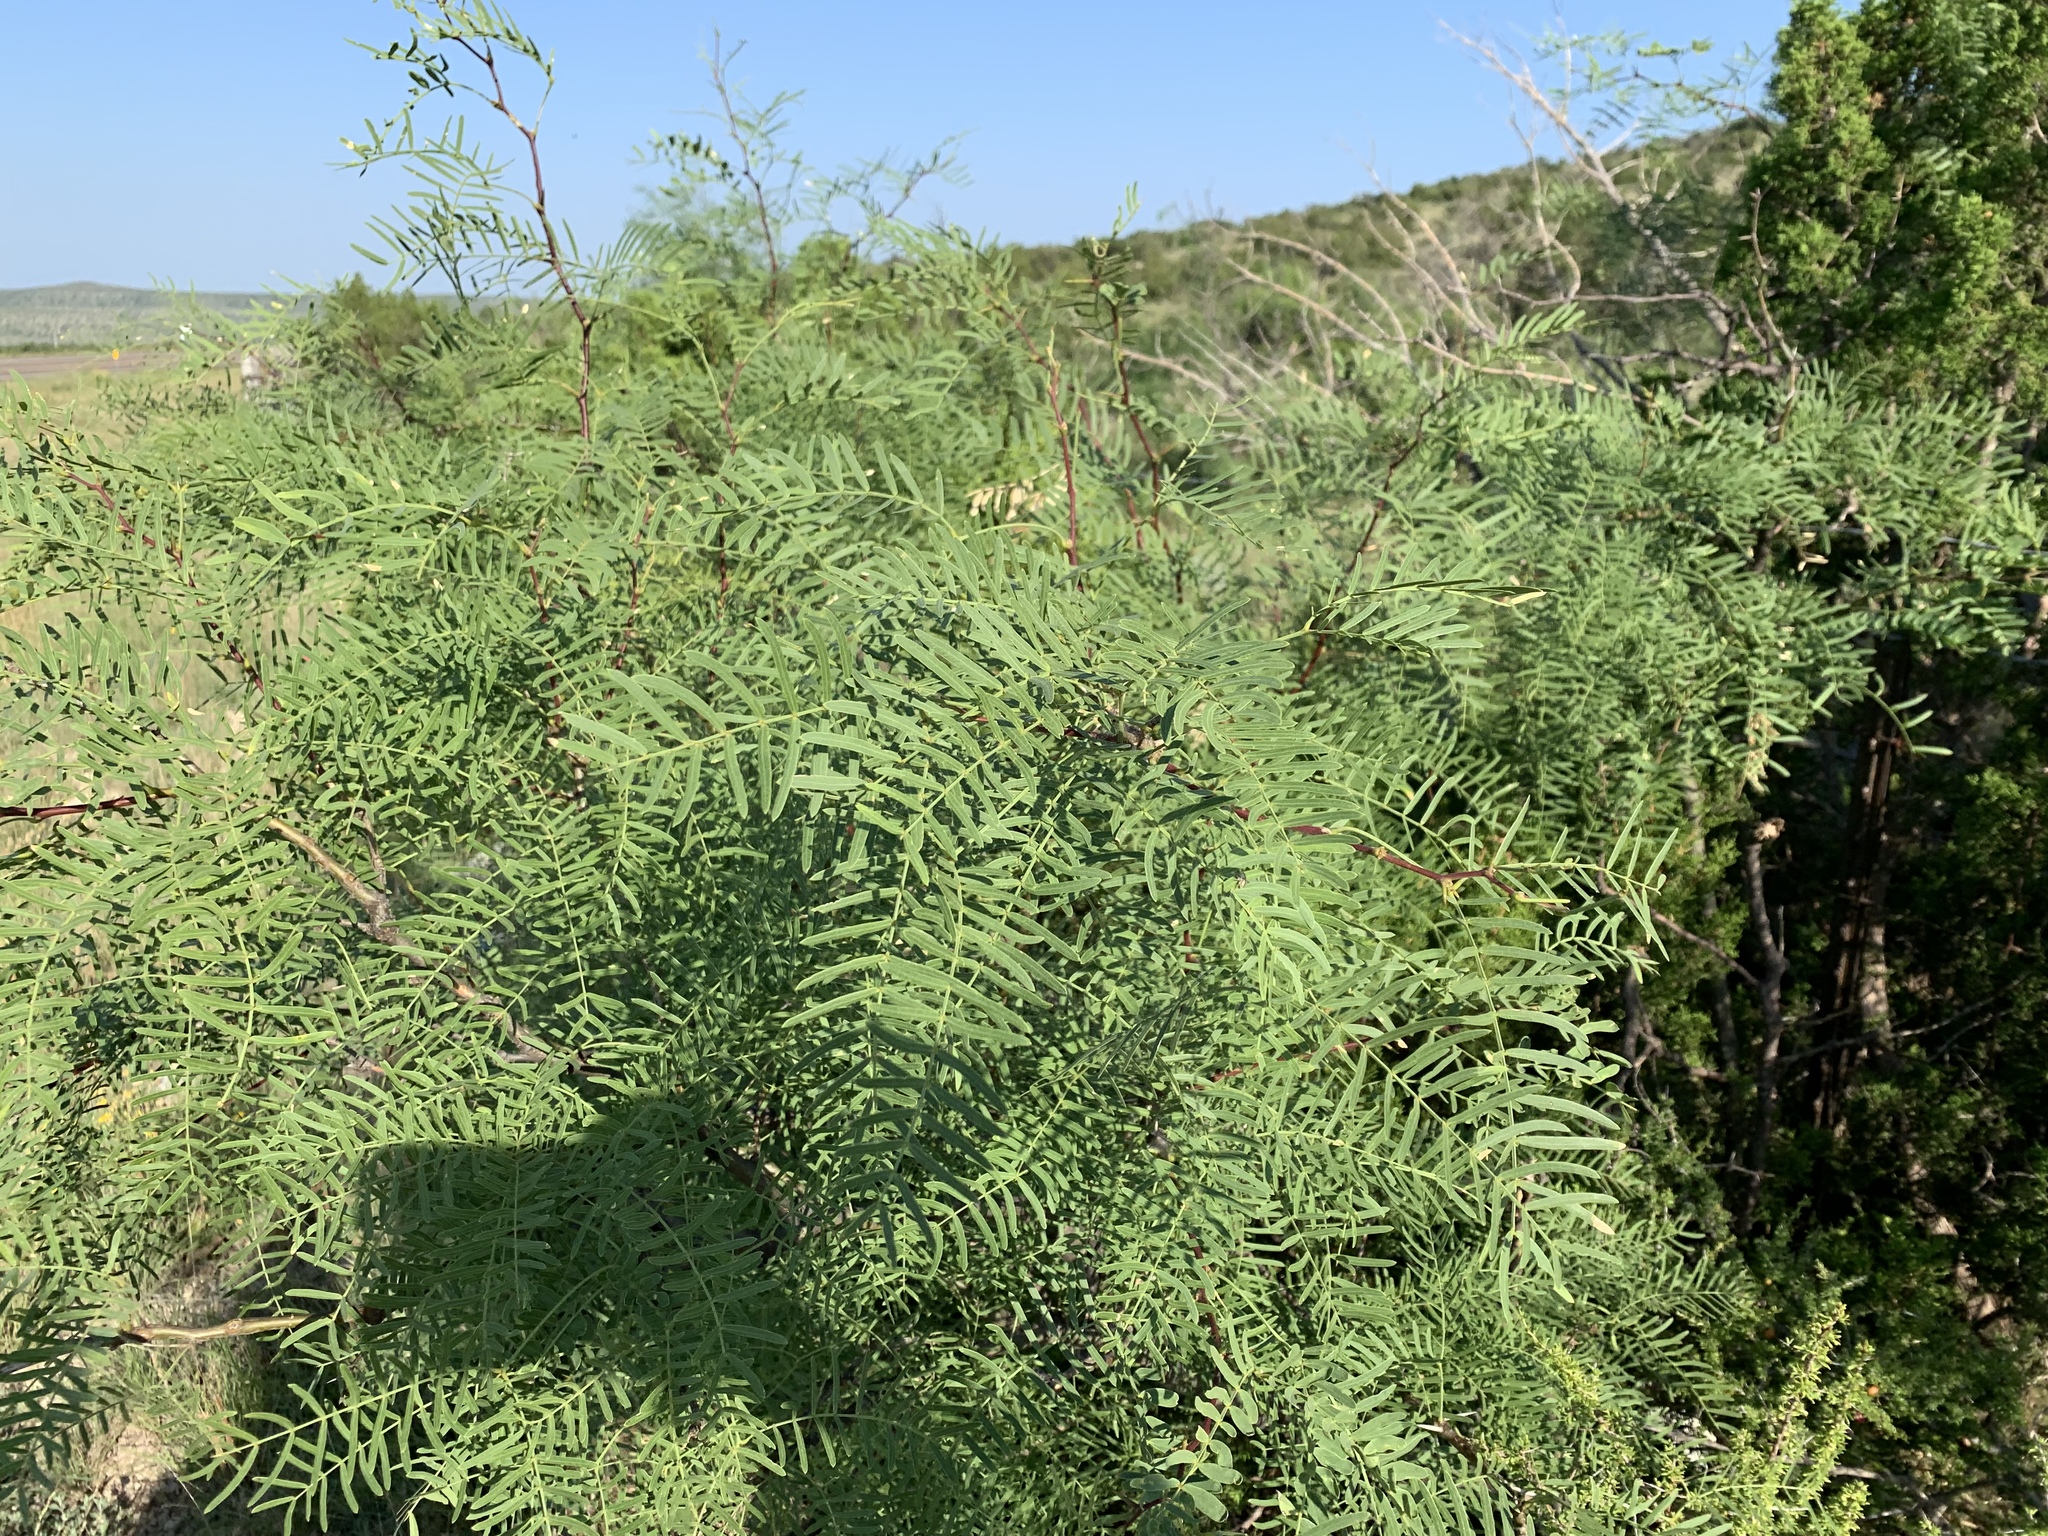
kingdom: Plantae
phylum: Tracheophyta
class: Magnoliopsida
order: Fabales
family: Fabaceae
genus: Prosopis
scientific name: Prosopis glandulosa
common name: Honey mesquite
